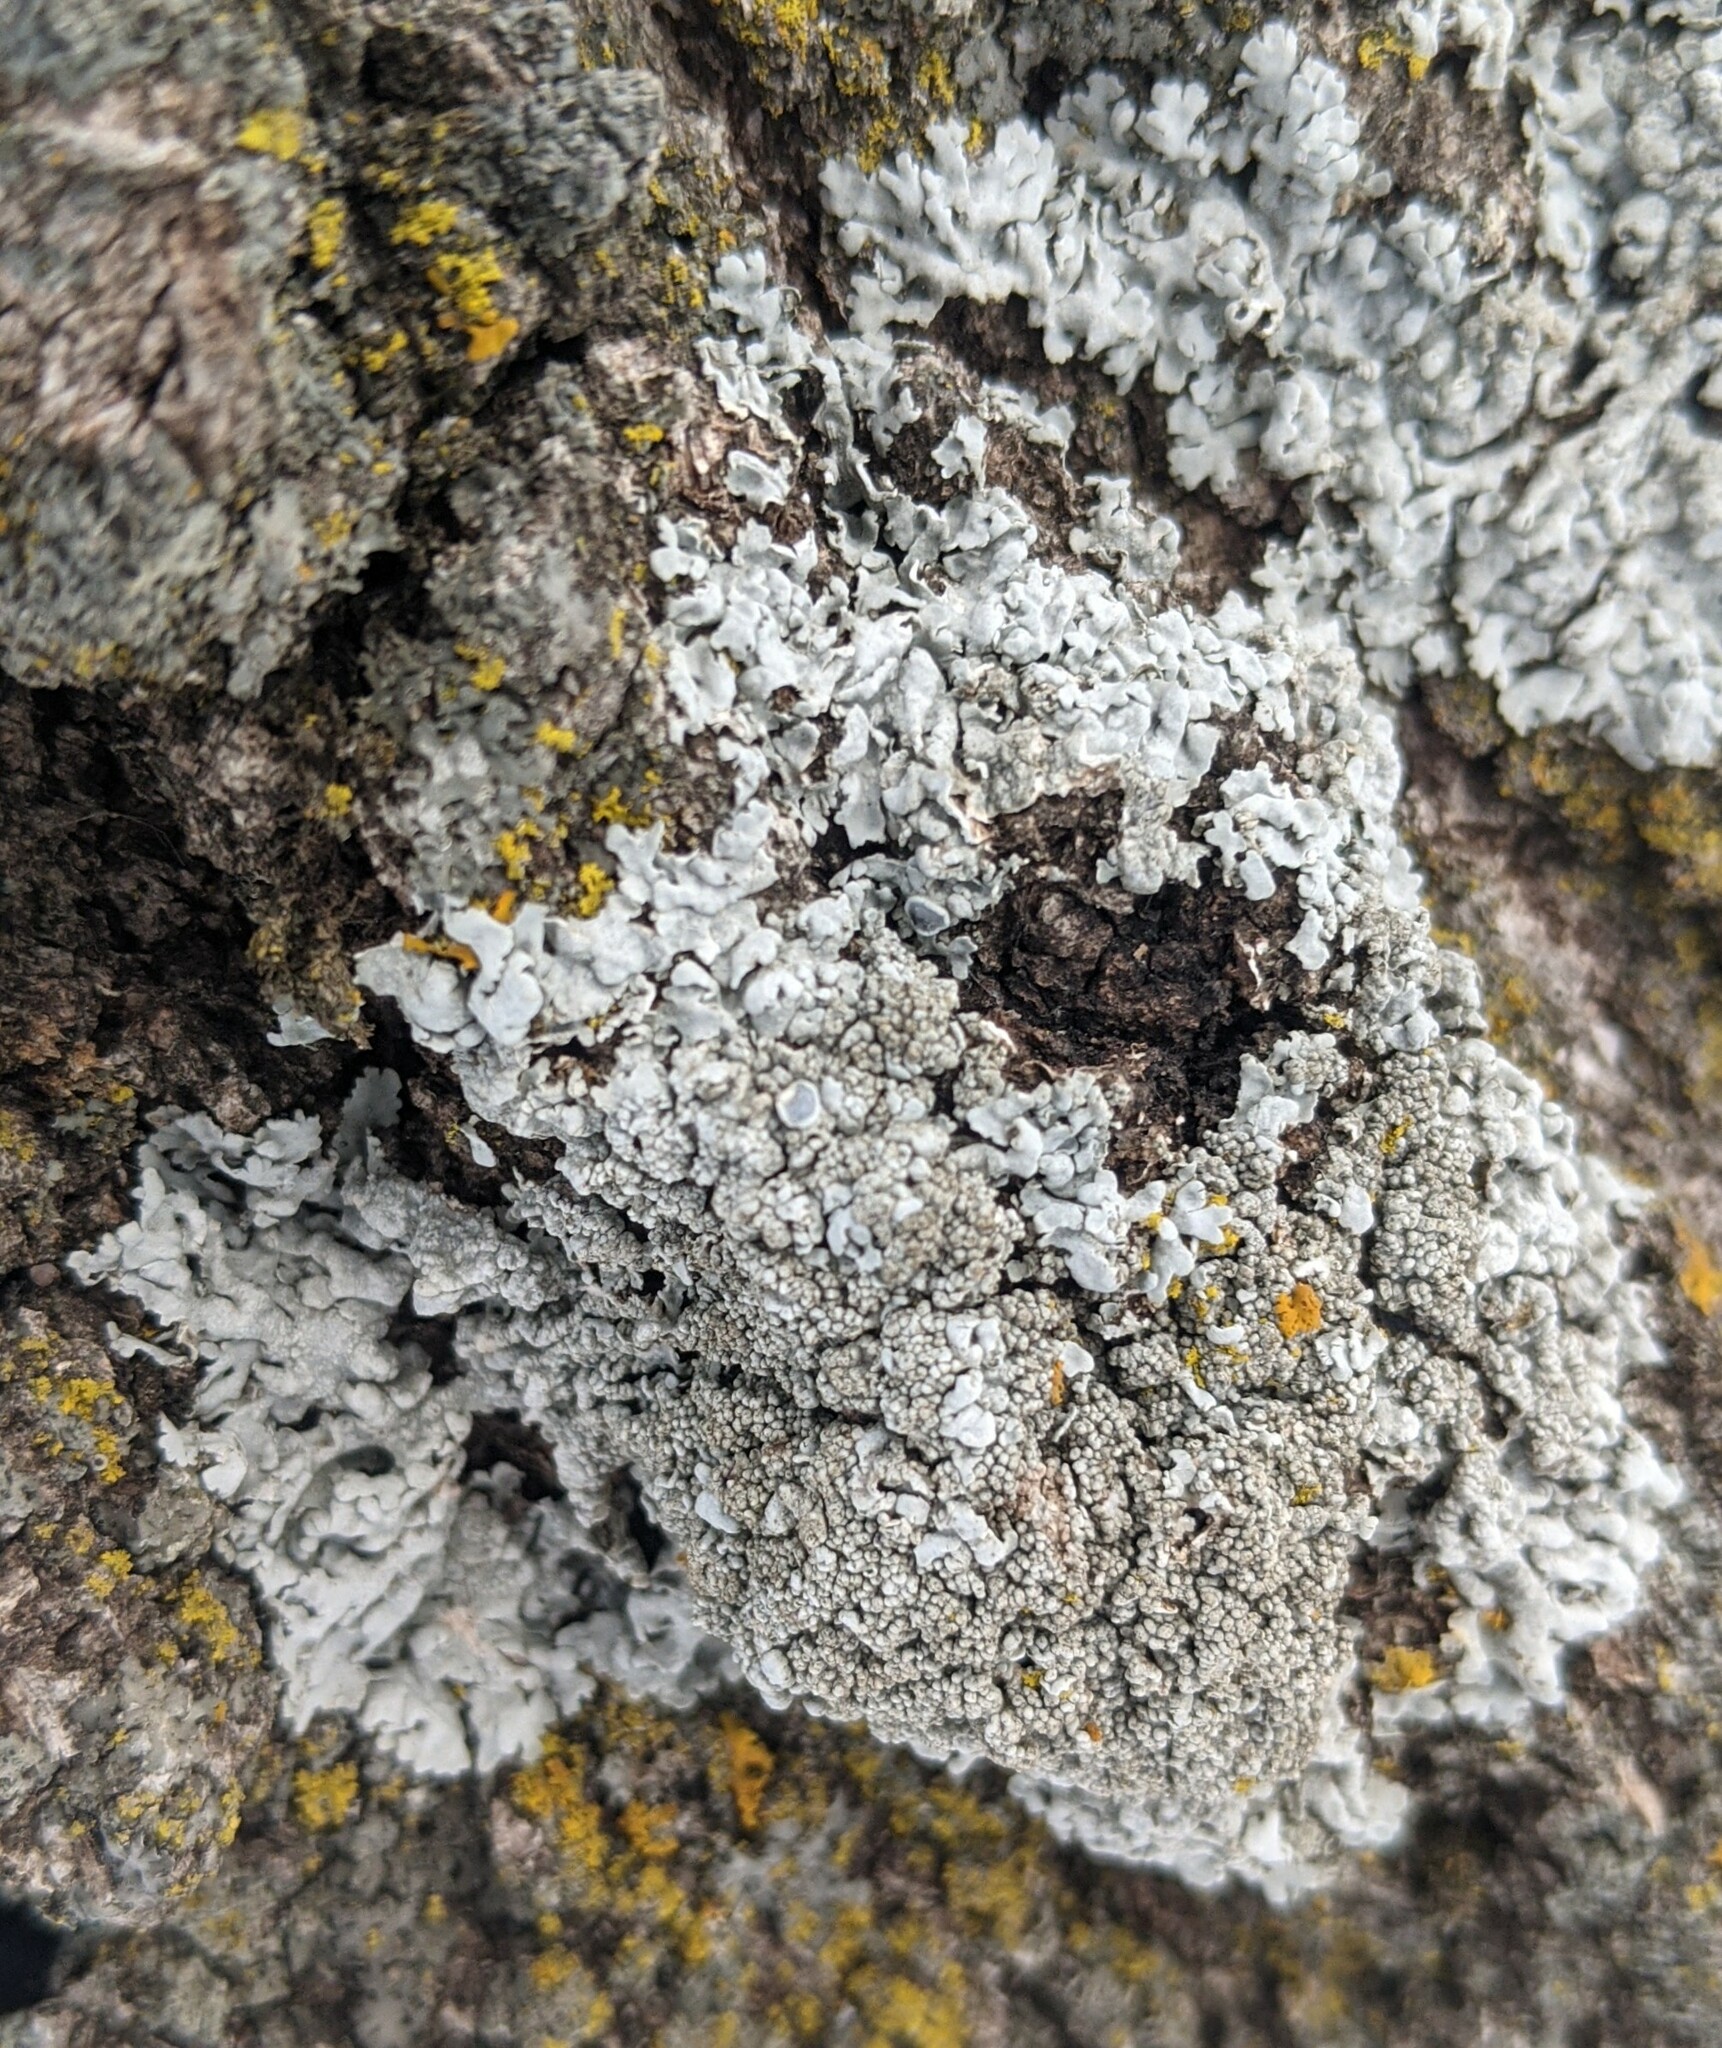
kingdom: Fungi
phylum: Ascomycota
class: Lecanoromycetes
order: Caliciales
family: Physciaceae
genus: Physcia
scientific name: Physcia
